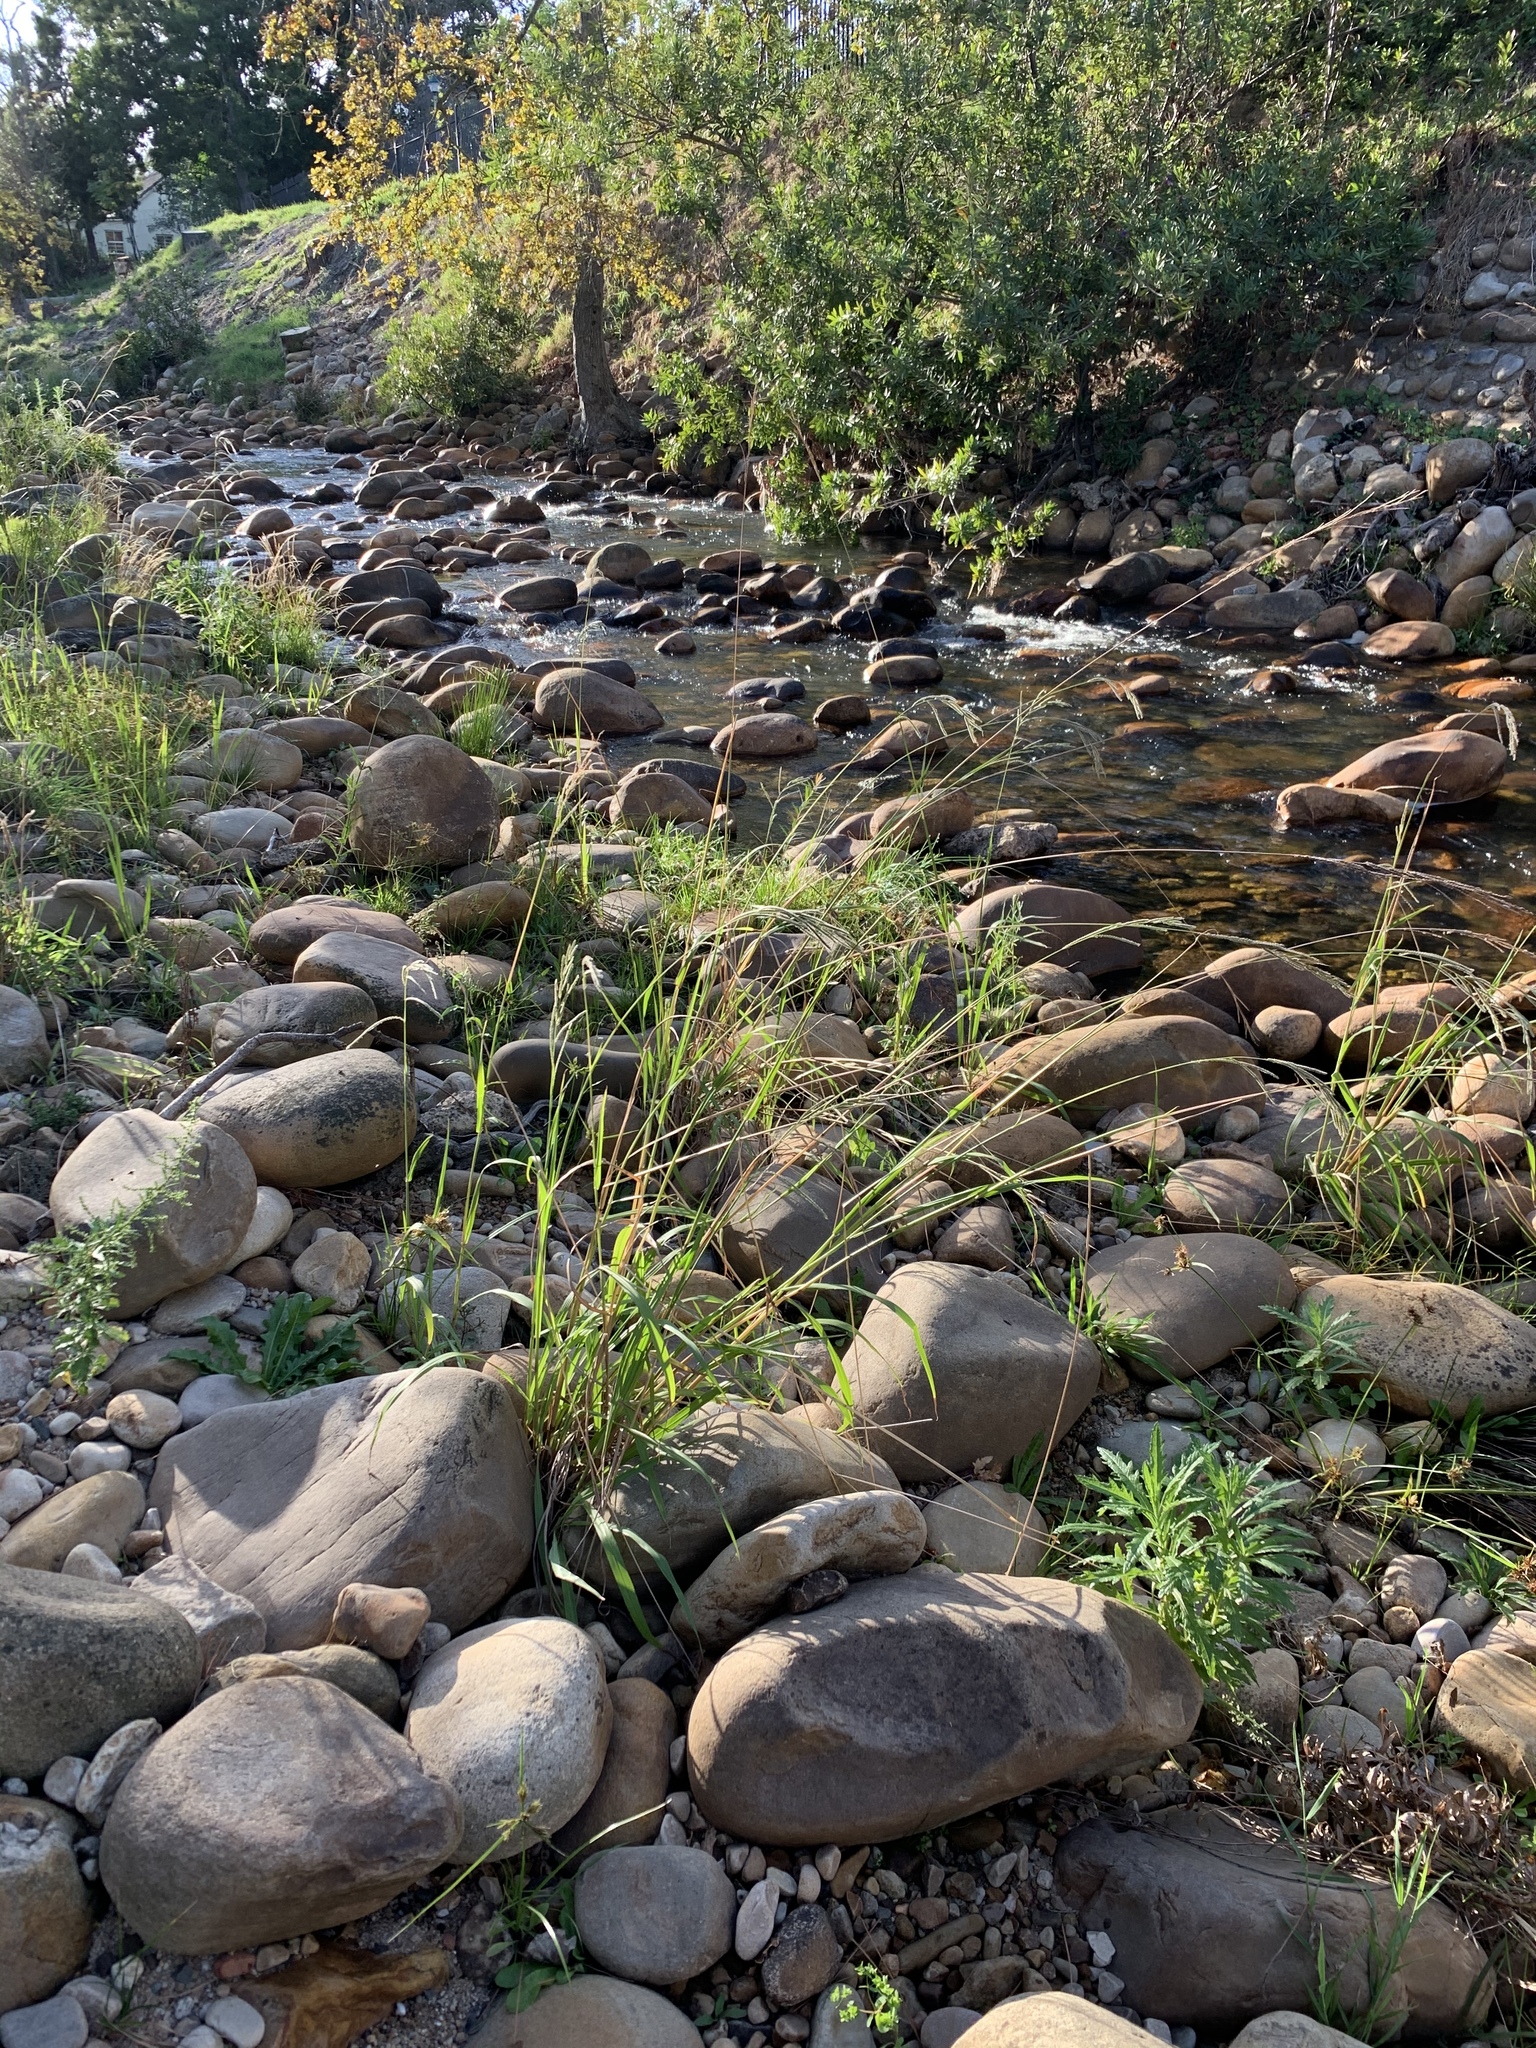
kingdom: Plantae
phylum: Tracheophyta
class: Liliopsida
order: Poales
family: Poaceae
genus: Paspalum
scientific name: Paspalum urvillei
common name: Vasey's grass
